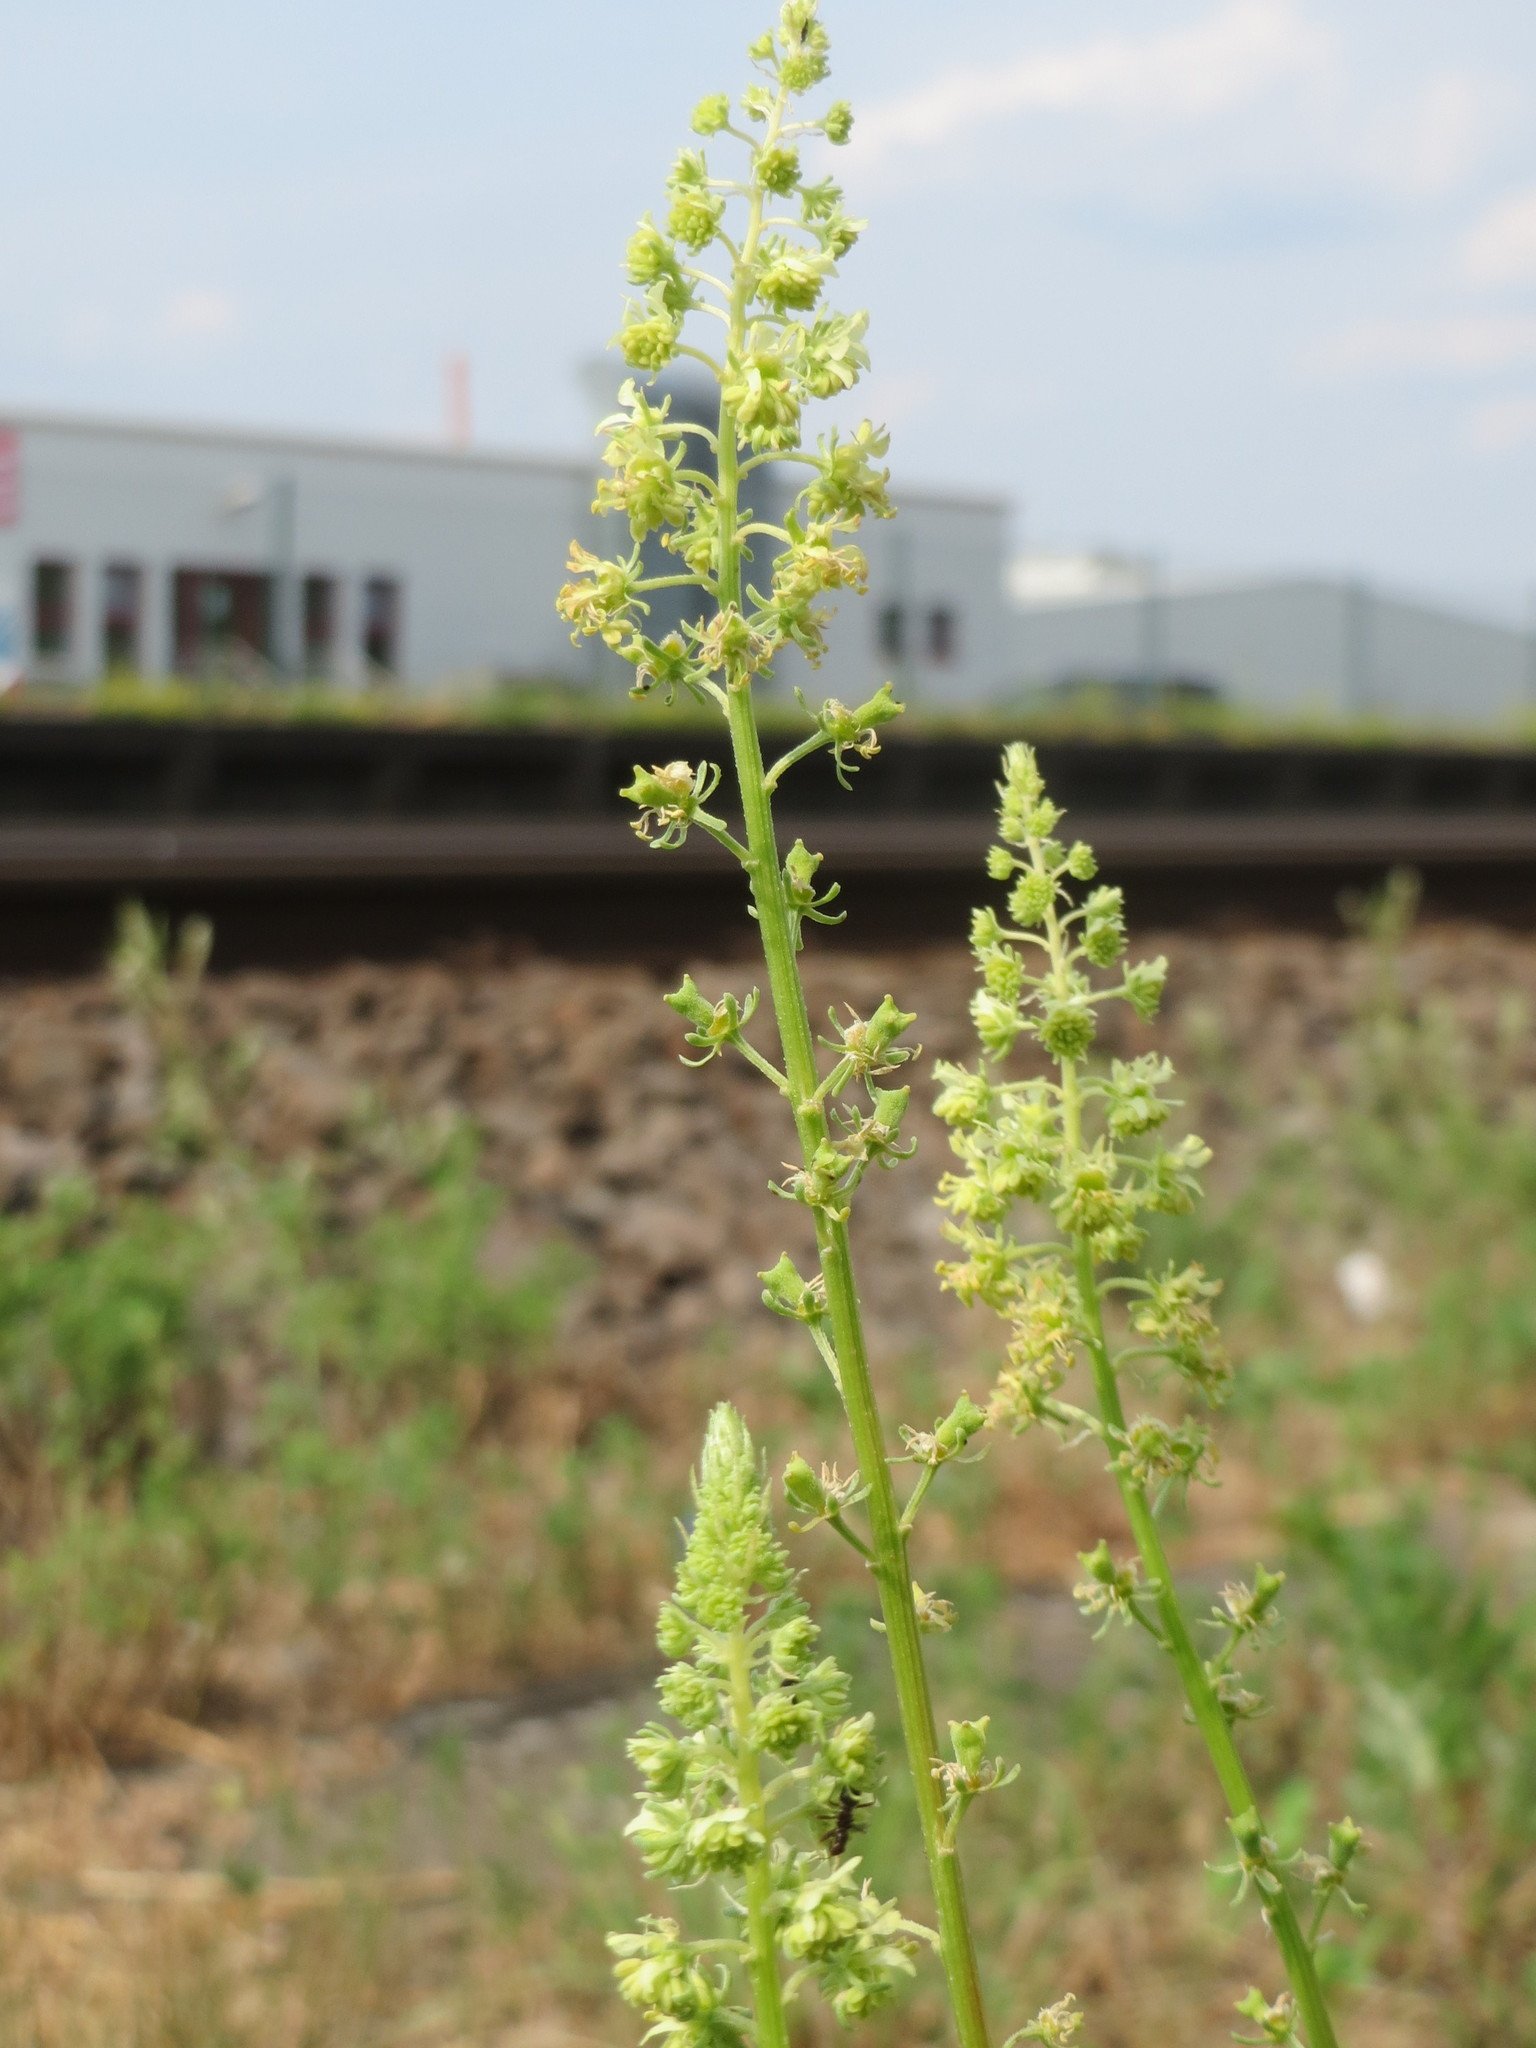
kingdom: Plantae
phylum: Tracheophyta
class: Magnoliopsida
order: Brassicales
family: Resedaceae
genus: Reseda
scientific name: Reseda lutea
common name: Wild mignonette
